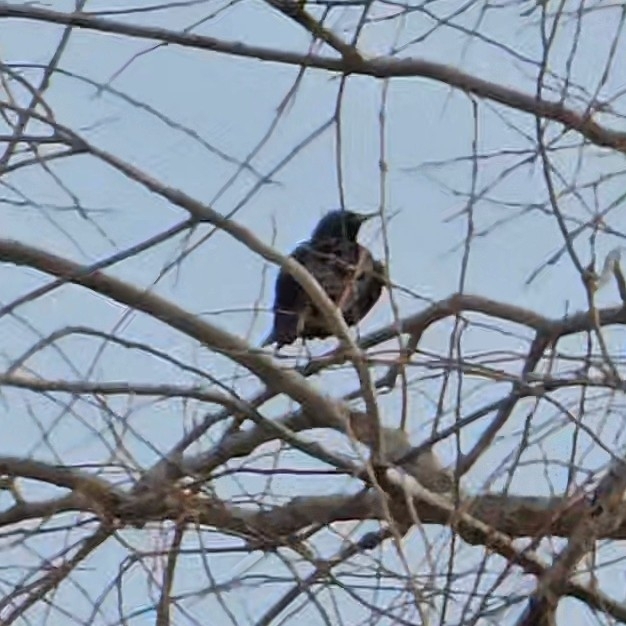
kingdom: Animalia
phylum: Chordata
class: Aves
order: Passeriformes
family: Sturnidae
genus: Sturnus
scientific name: Sturnus vulgaris
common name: Common starling
